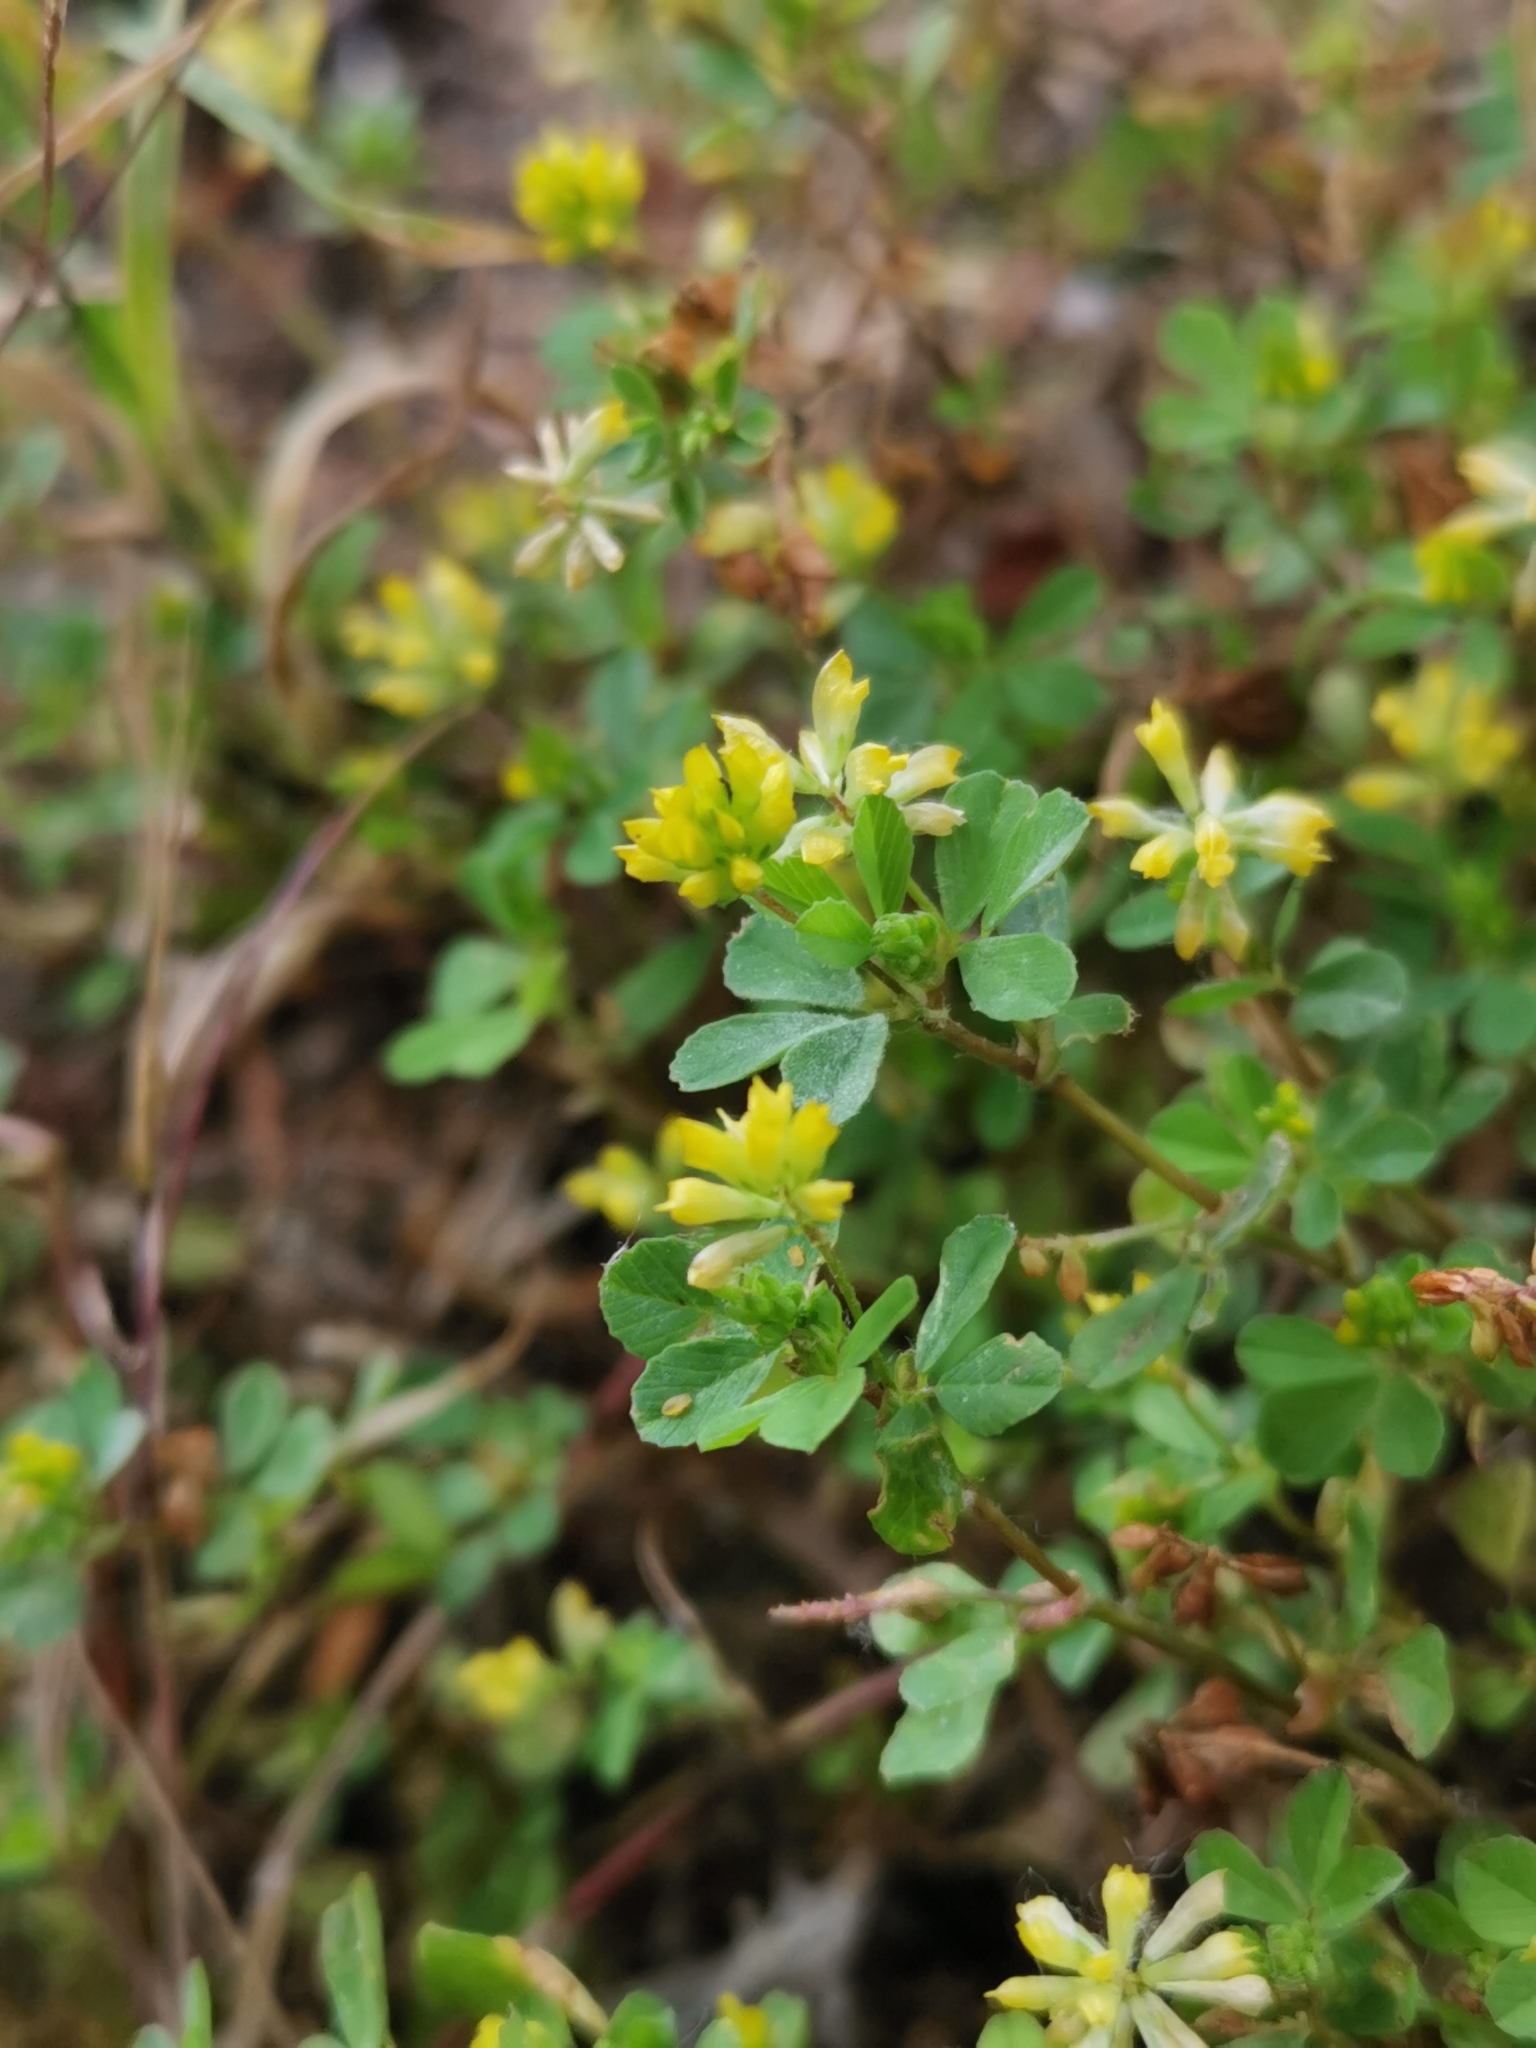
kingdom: Plantae
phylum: Tracheophyta
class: Magnoliopsida
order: Fabales
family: Fabaceae
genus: Trifolium
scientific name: Trifolium dubium
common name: Suckling clover
